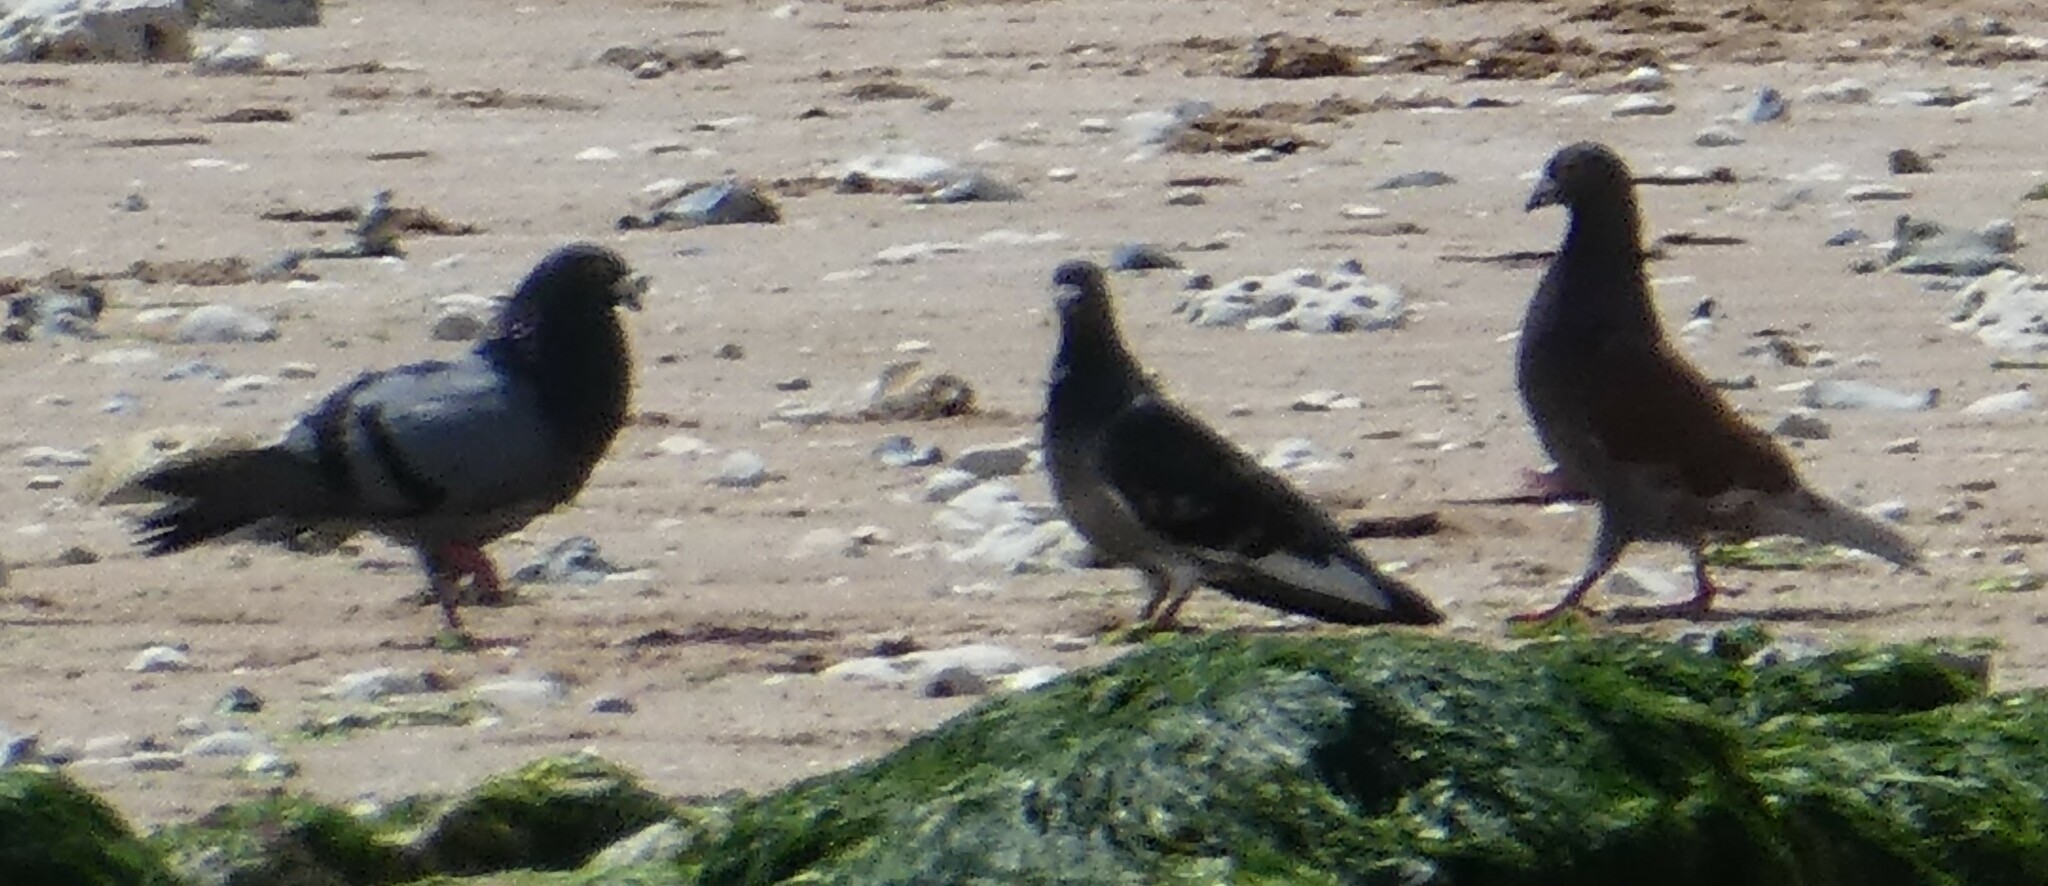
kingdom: Animalia
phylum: Chordata
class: Aves
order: Columbiformes
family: Columbidae
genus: Columba
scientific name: Columba livia
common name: Rock pigeon
